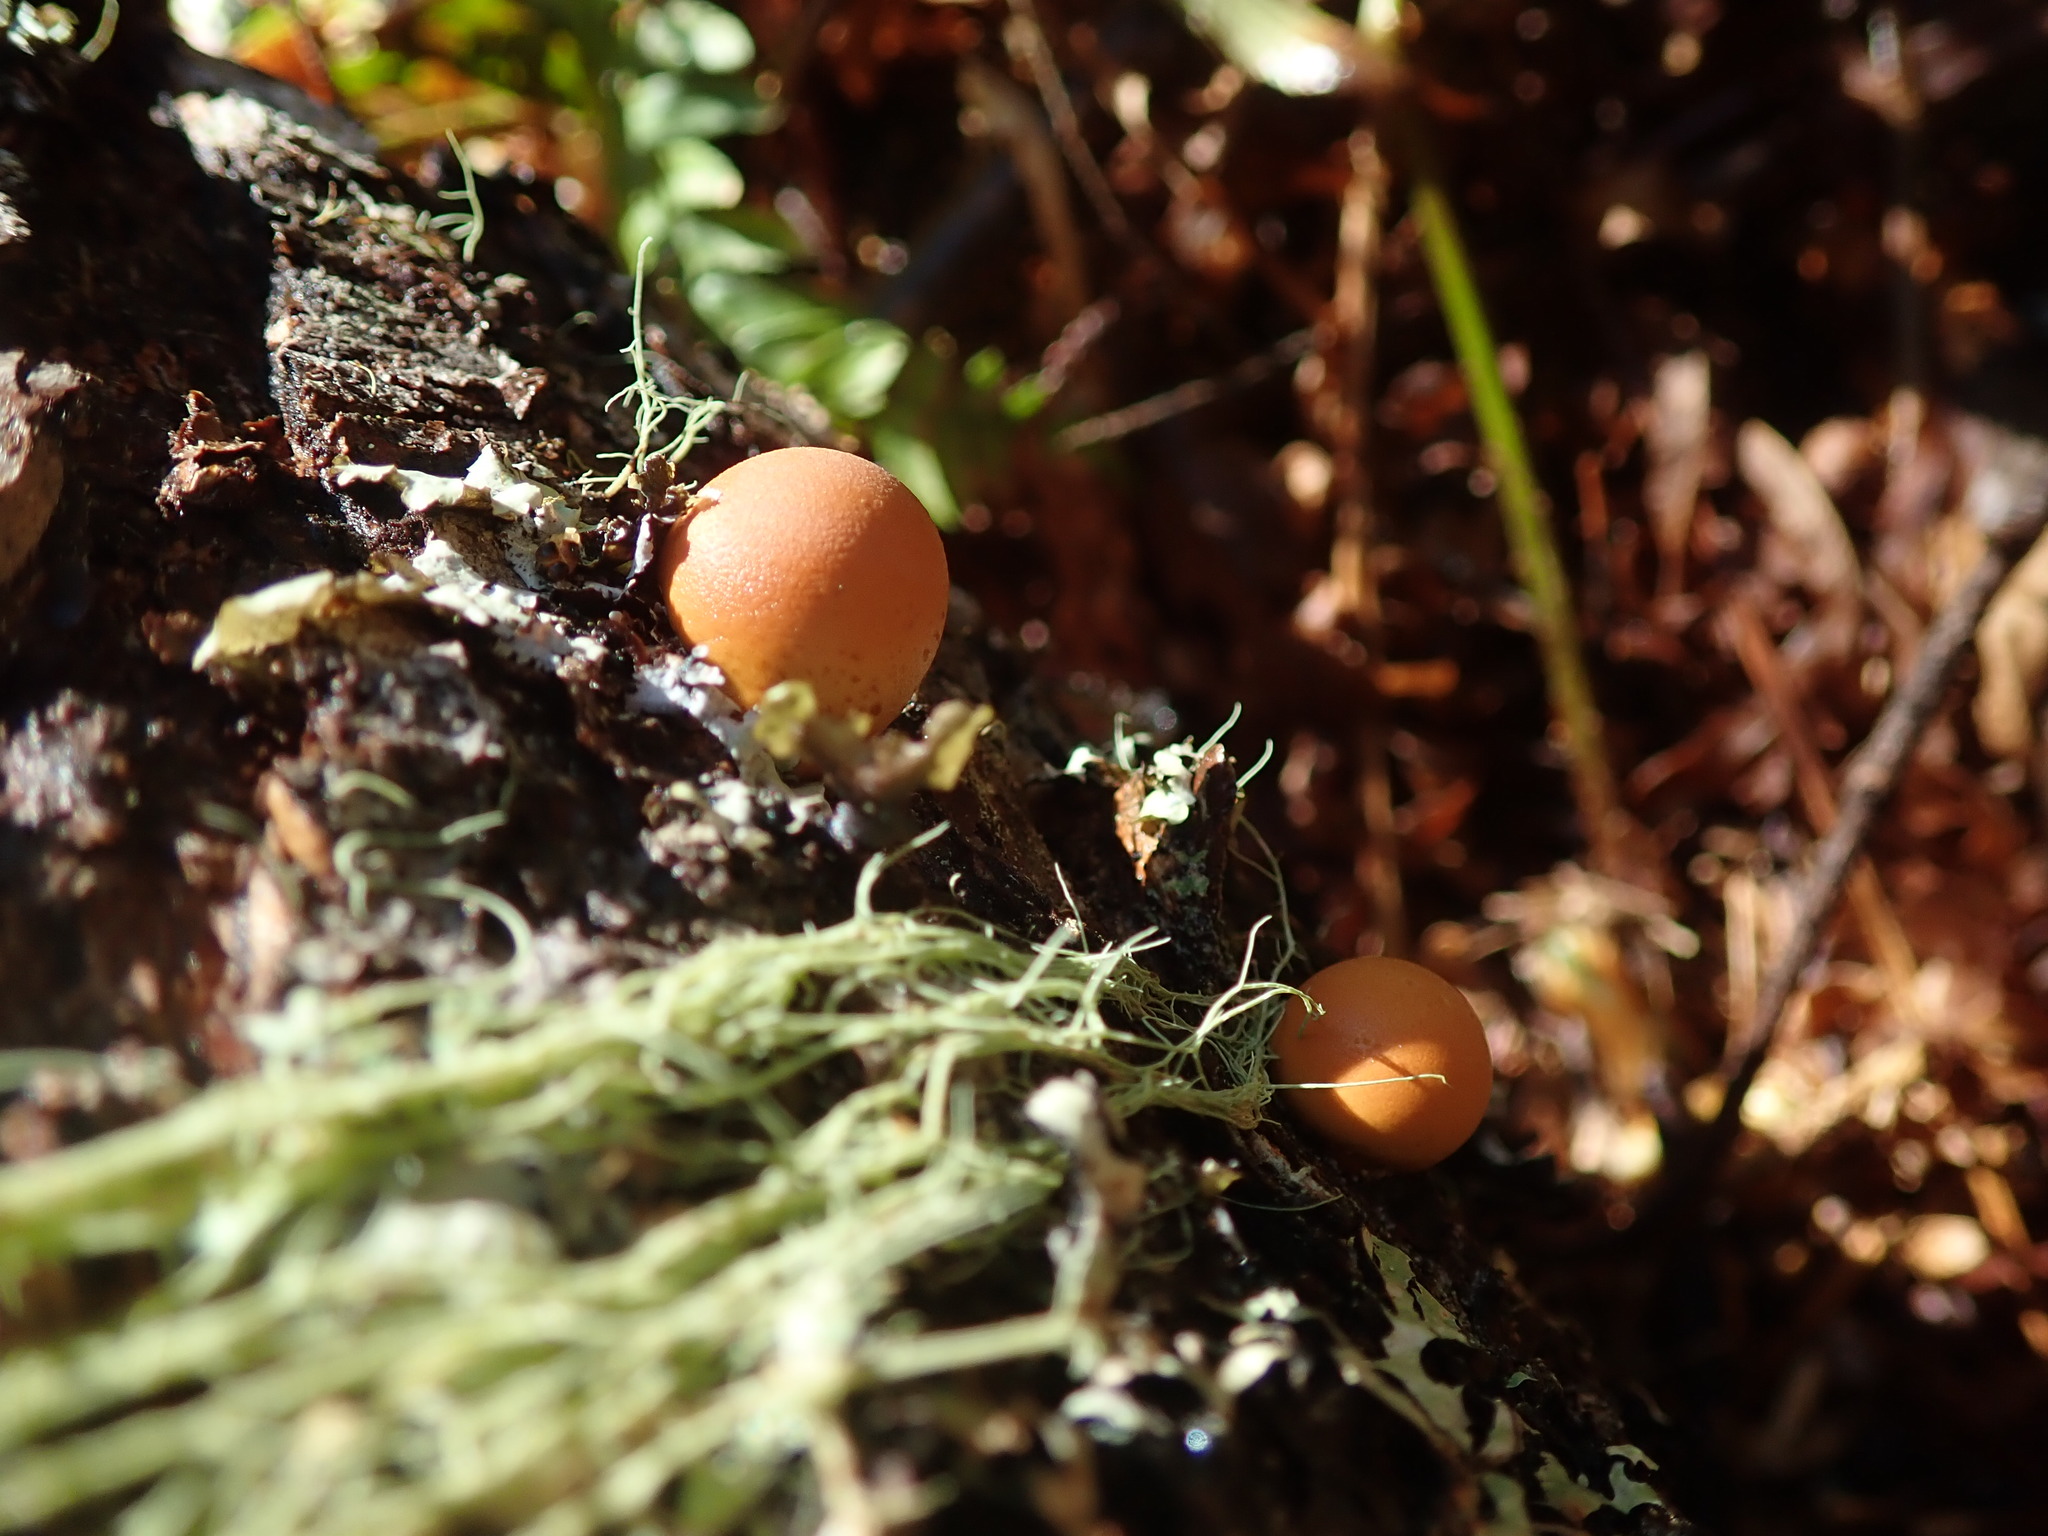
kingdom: Fungi
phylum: Basidiomycota
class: Agaricomycetes
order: Polyporales
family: Polyporaceae
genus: Cryptoporus
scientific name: Cryptoporus volvatus
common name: Veiled polypore
